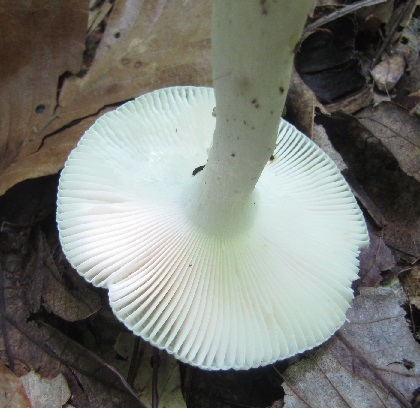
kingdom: Fungi
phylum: Basidiomycota
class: Agaricomycetes
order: Russulales
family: Russulaceae
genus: Russula
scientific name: Russula parvovirescens
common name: Blue-green cracking russula
